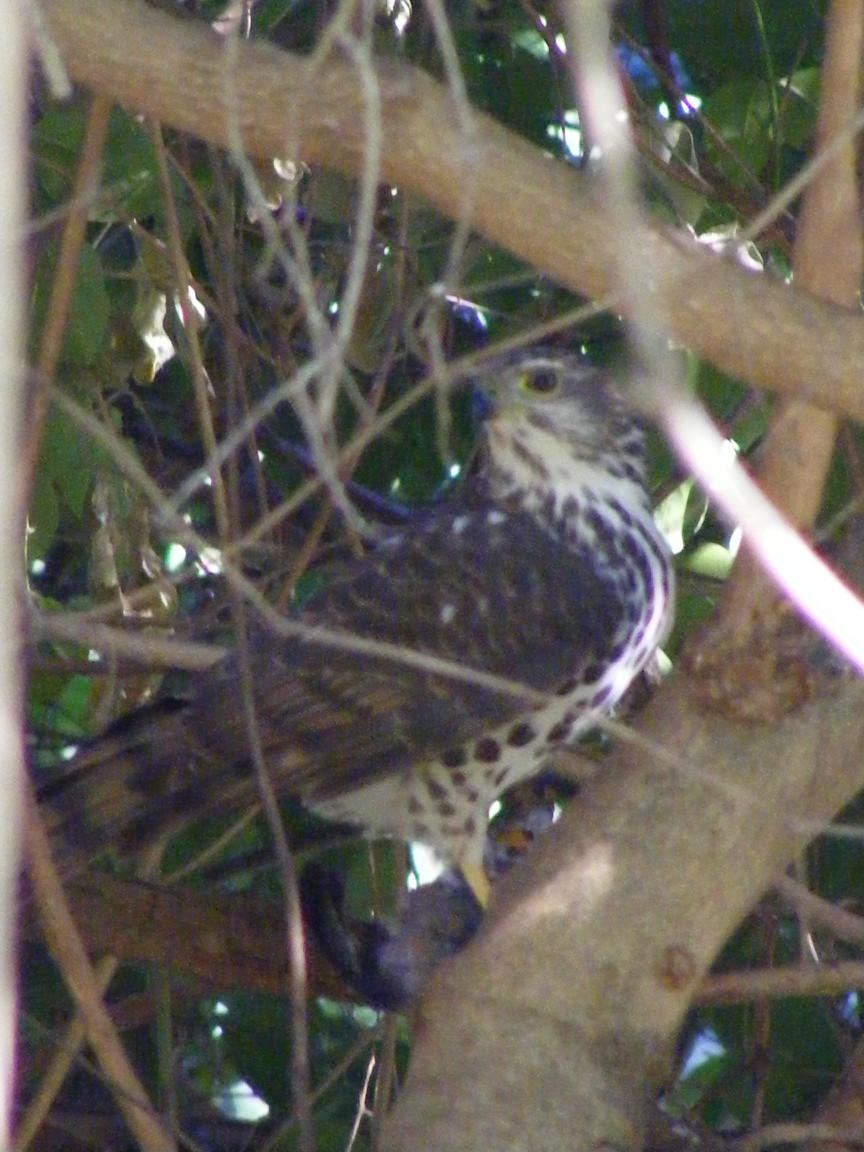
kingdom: Animalia
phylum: Chordata
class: Aves
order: Accipitriformes
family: Accipitridae
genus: Accipiter
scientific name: Accipiter tachiro
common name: African goshawk
